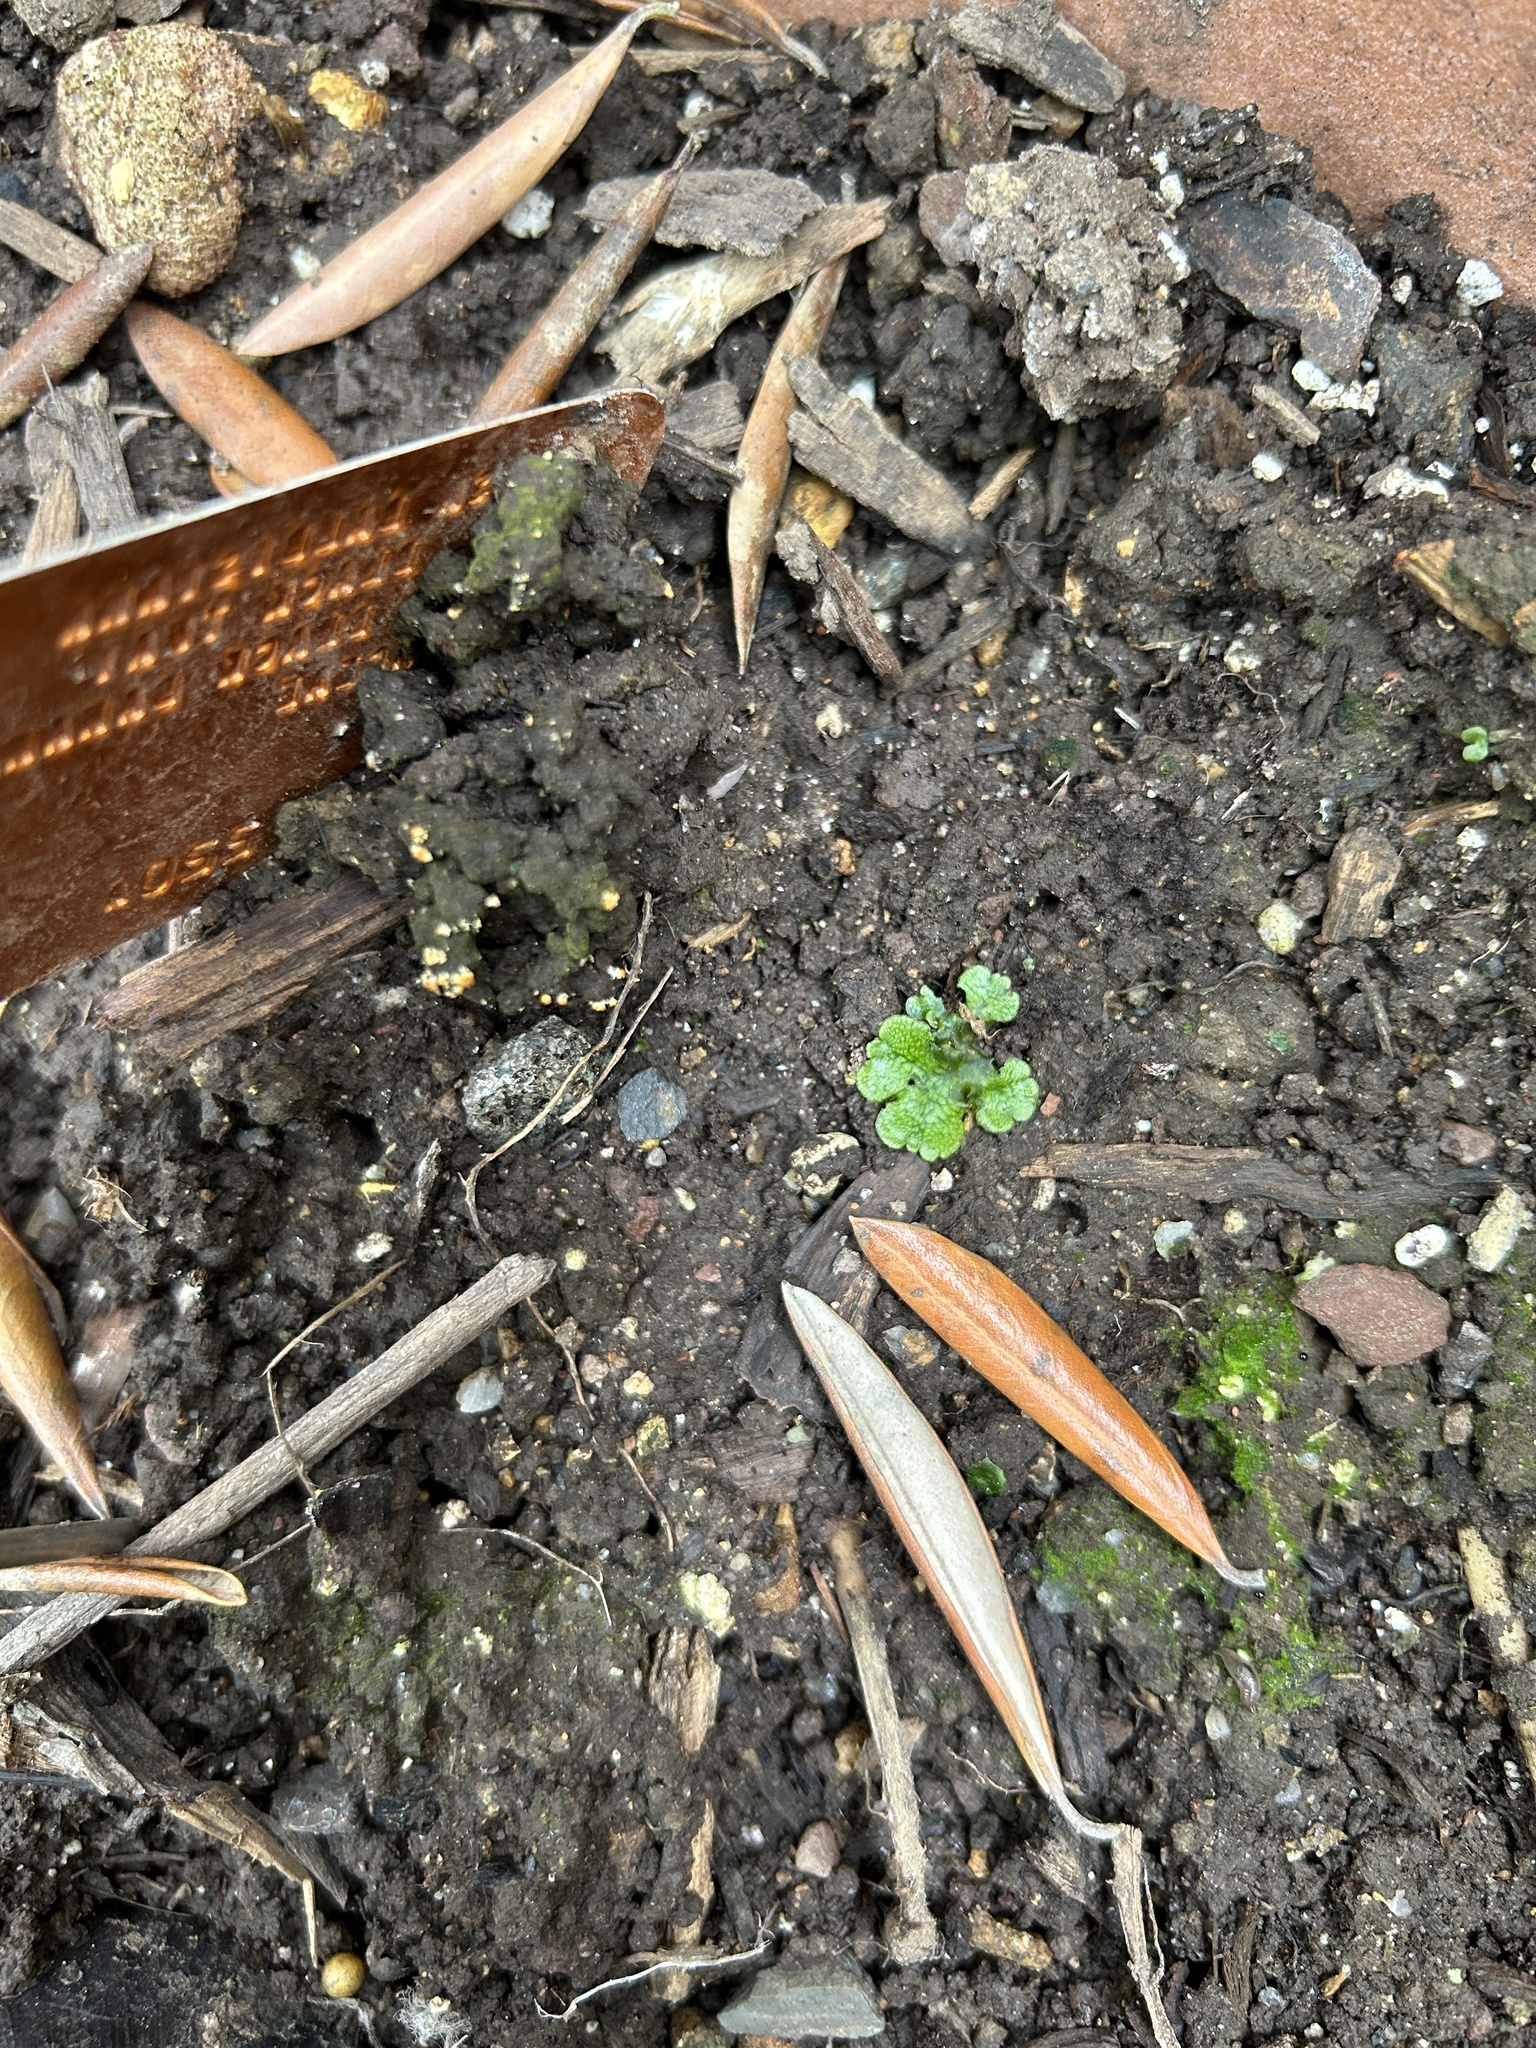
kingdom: Plantae
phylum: Marchantiophyta
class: Marchantiopsida
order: Marchantiales
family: Marchantiaceae
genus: Marchantia
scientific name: Marchantia polymorpha
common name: Common liverwort
